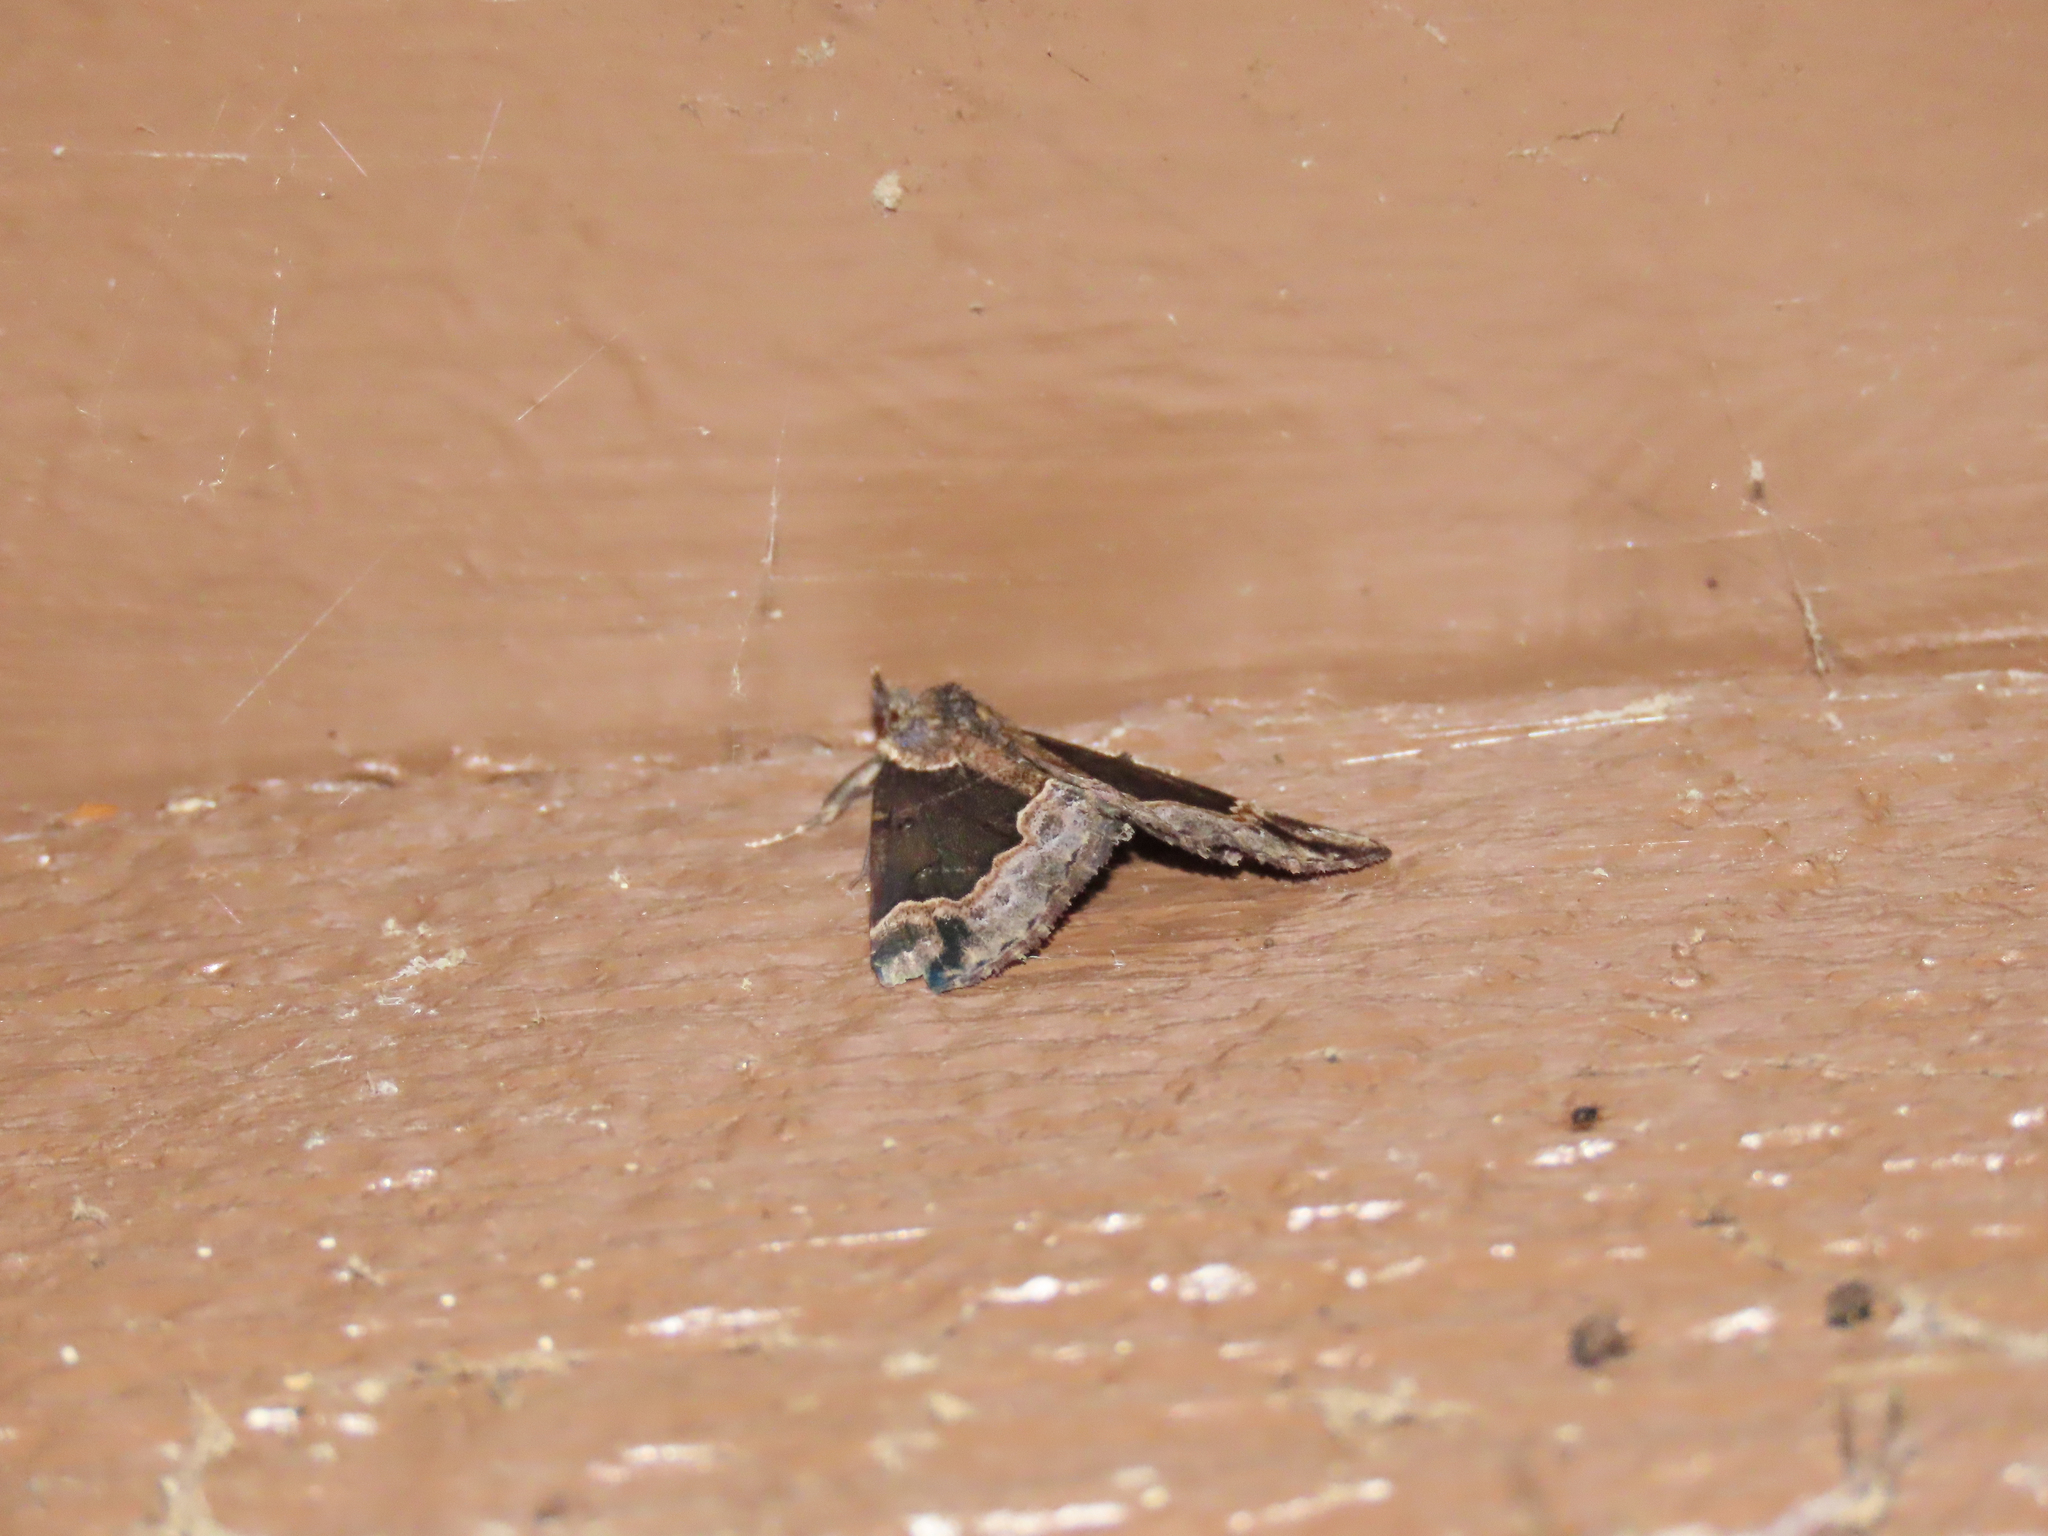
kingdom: Animalia
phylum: Arthropoda
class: Insecta
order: Lepidoptera
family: Erebidae
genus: Hypena
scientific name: Hypena baltimoralis
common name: Baltimore snout
